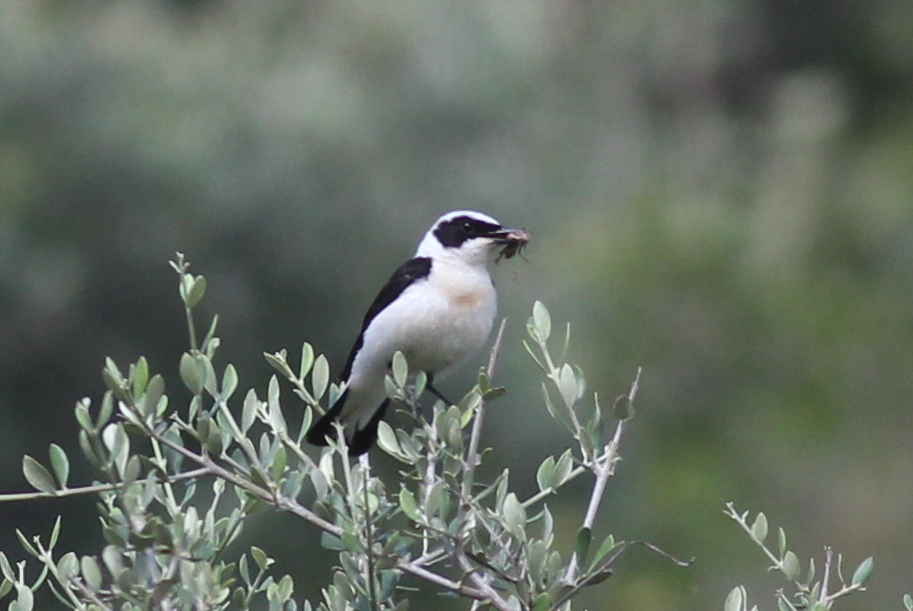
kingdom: Animalia
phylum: Chordata
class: Aves
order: Passeriformes
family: Muscicapidae
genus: Oenanthe
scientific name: Oenanthe hispanica
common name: Black-eared wheatear
